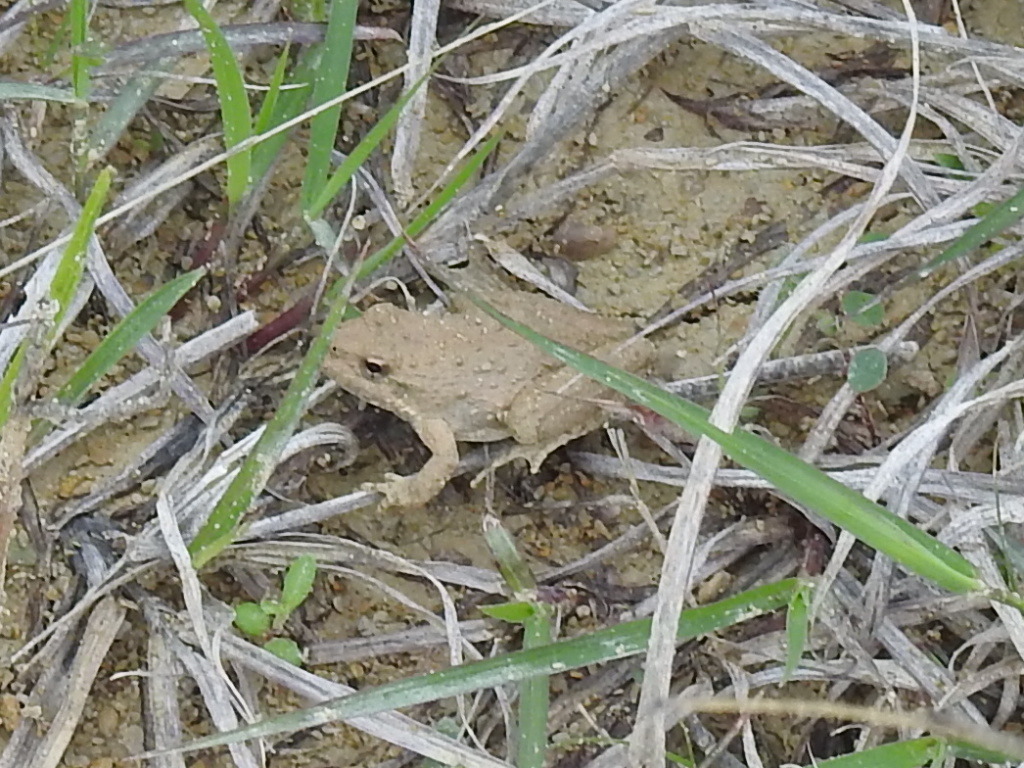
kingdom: Animalia
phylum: Chordata
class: Amphibia
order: Anura
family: Hylidae
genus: Acris
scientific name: Acris blanchardi
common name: Blanchard's cricket frog
